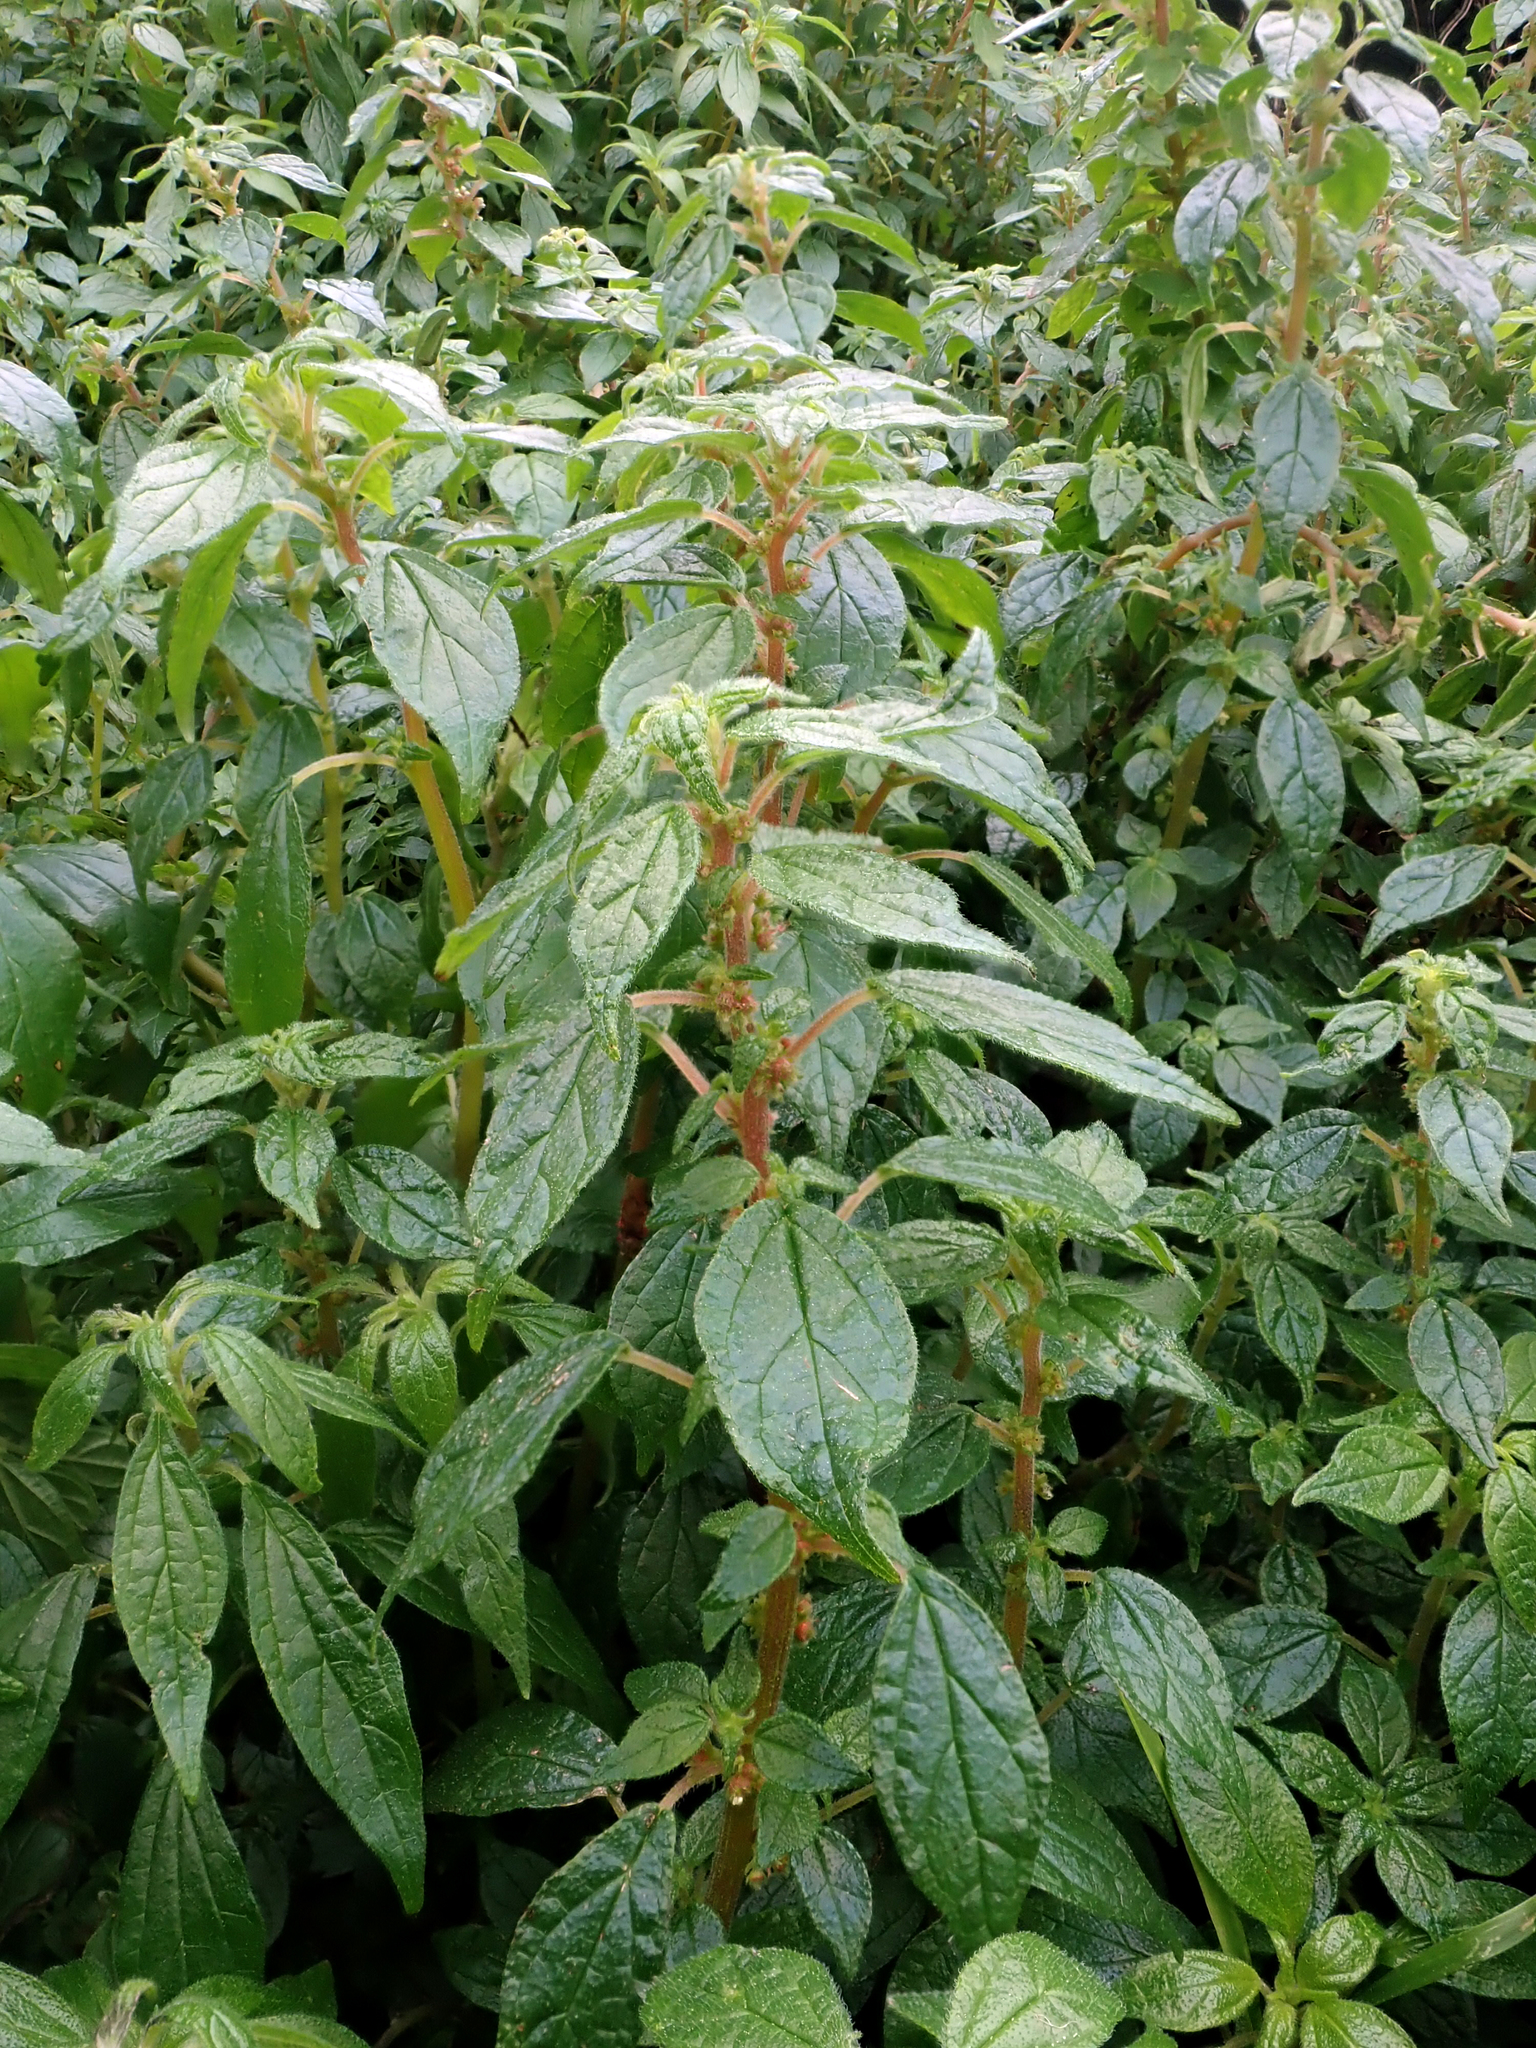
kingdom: Plantae
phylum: Tracheophyta
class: Magnoliopsida
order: Rosales
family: Urticaceae
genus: Parietaria
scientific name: Parietaria judaica
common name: Pellitory-of-the-wall
